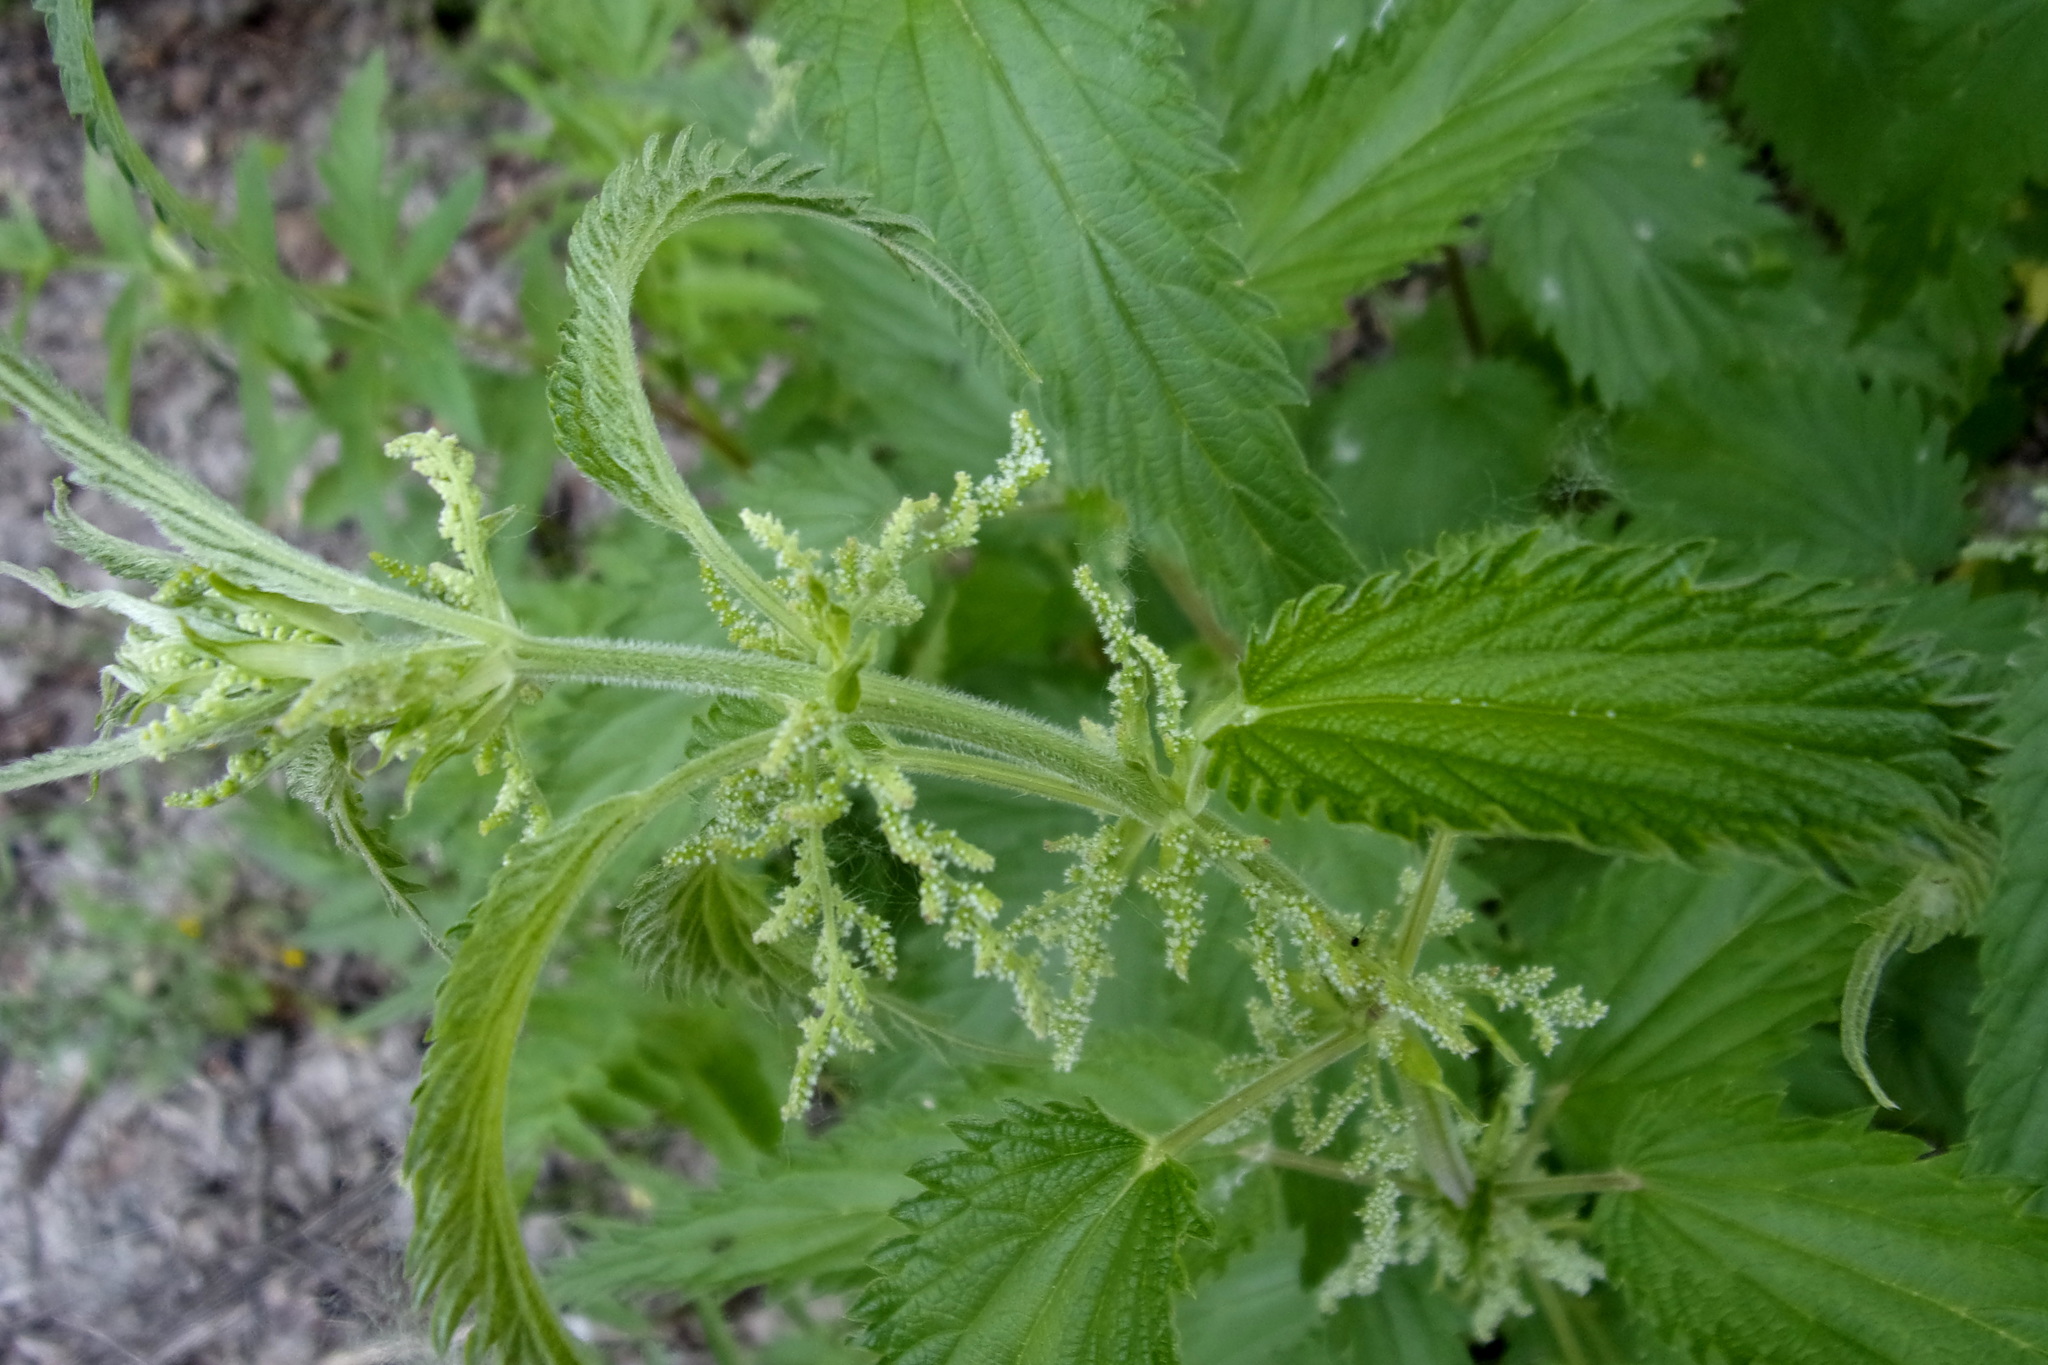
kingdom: Plantae
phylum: Tracheophyta
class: Magnoliopsida
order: Rosales
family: Urticaceae
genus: Urtica
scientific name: Urtica galeopsifolia
